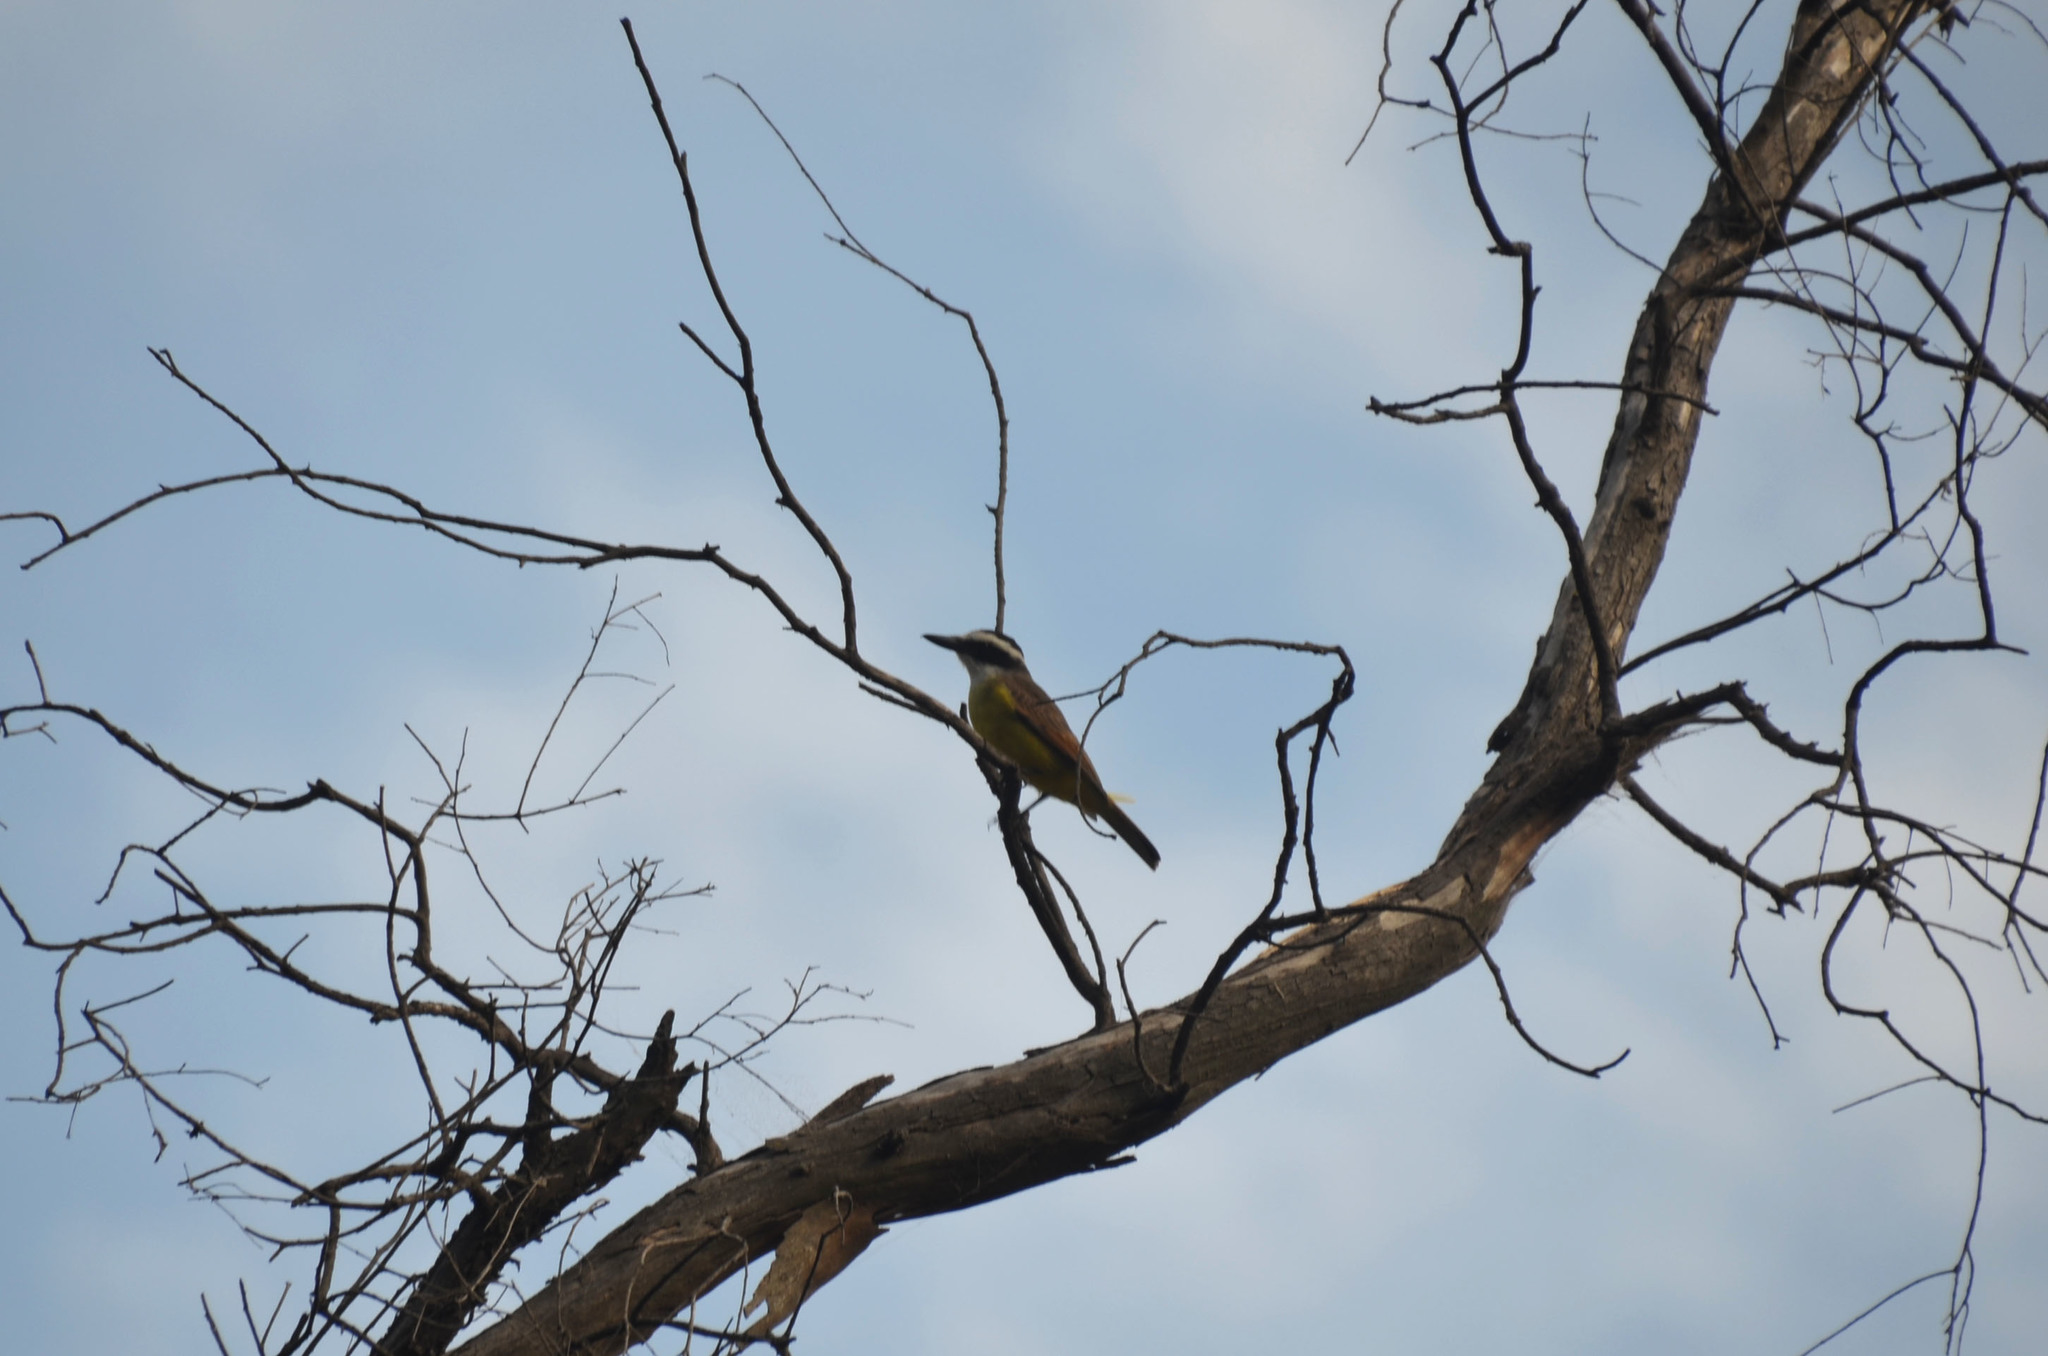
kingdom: Animalia
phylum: Chordata
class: Aves
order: Passeriformes
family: Tyrannidae
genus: Pitangus
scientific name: Pitangus sulphuratus
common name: Great kiskadee
